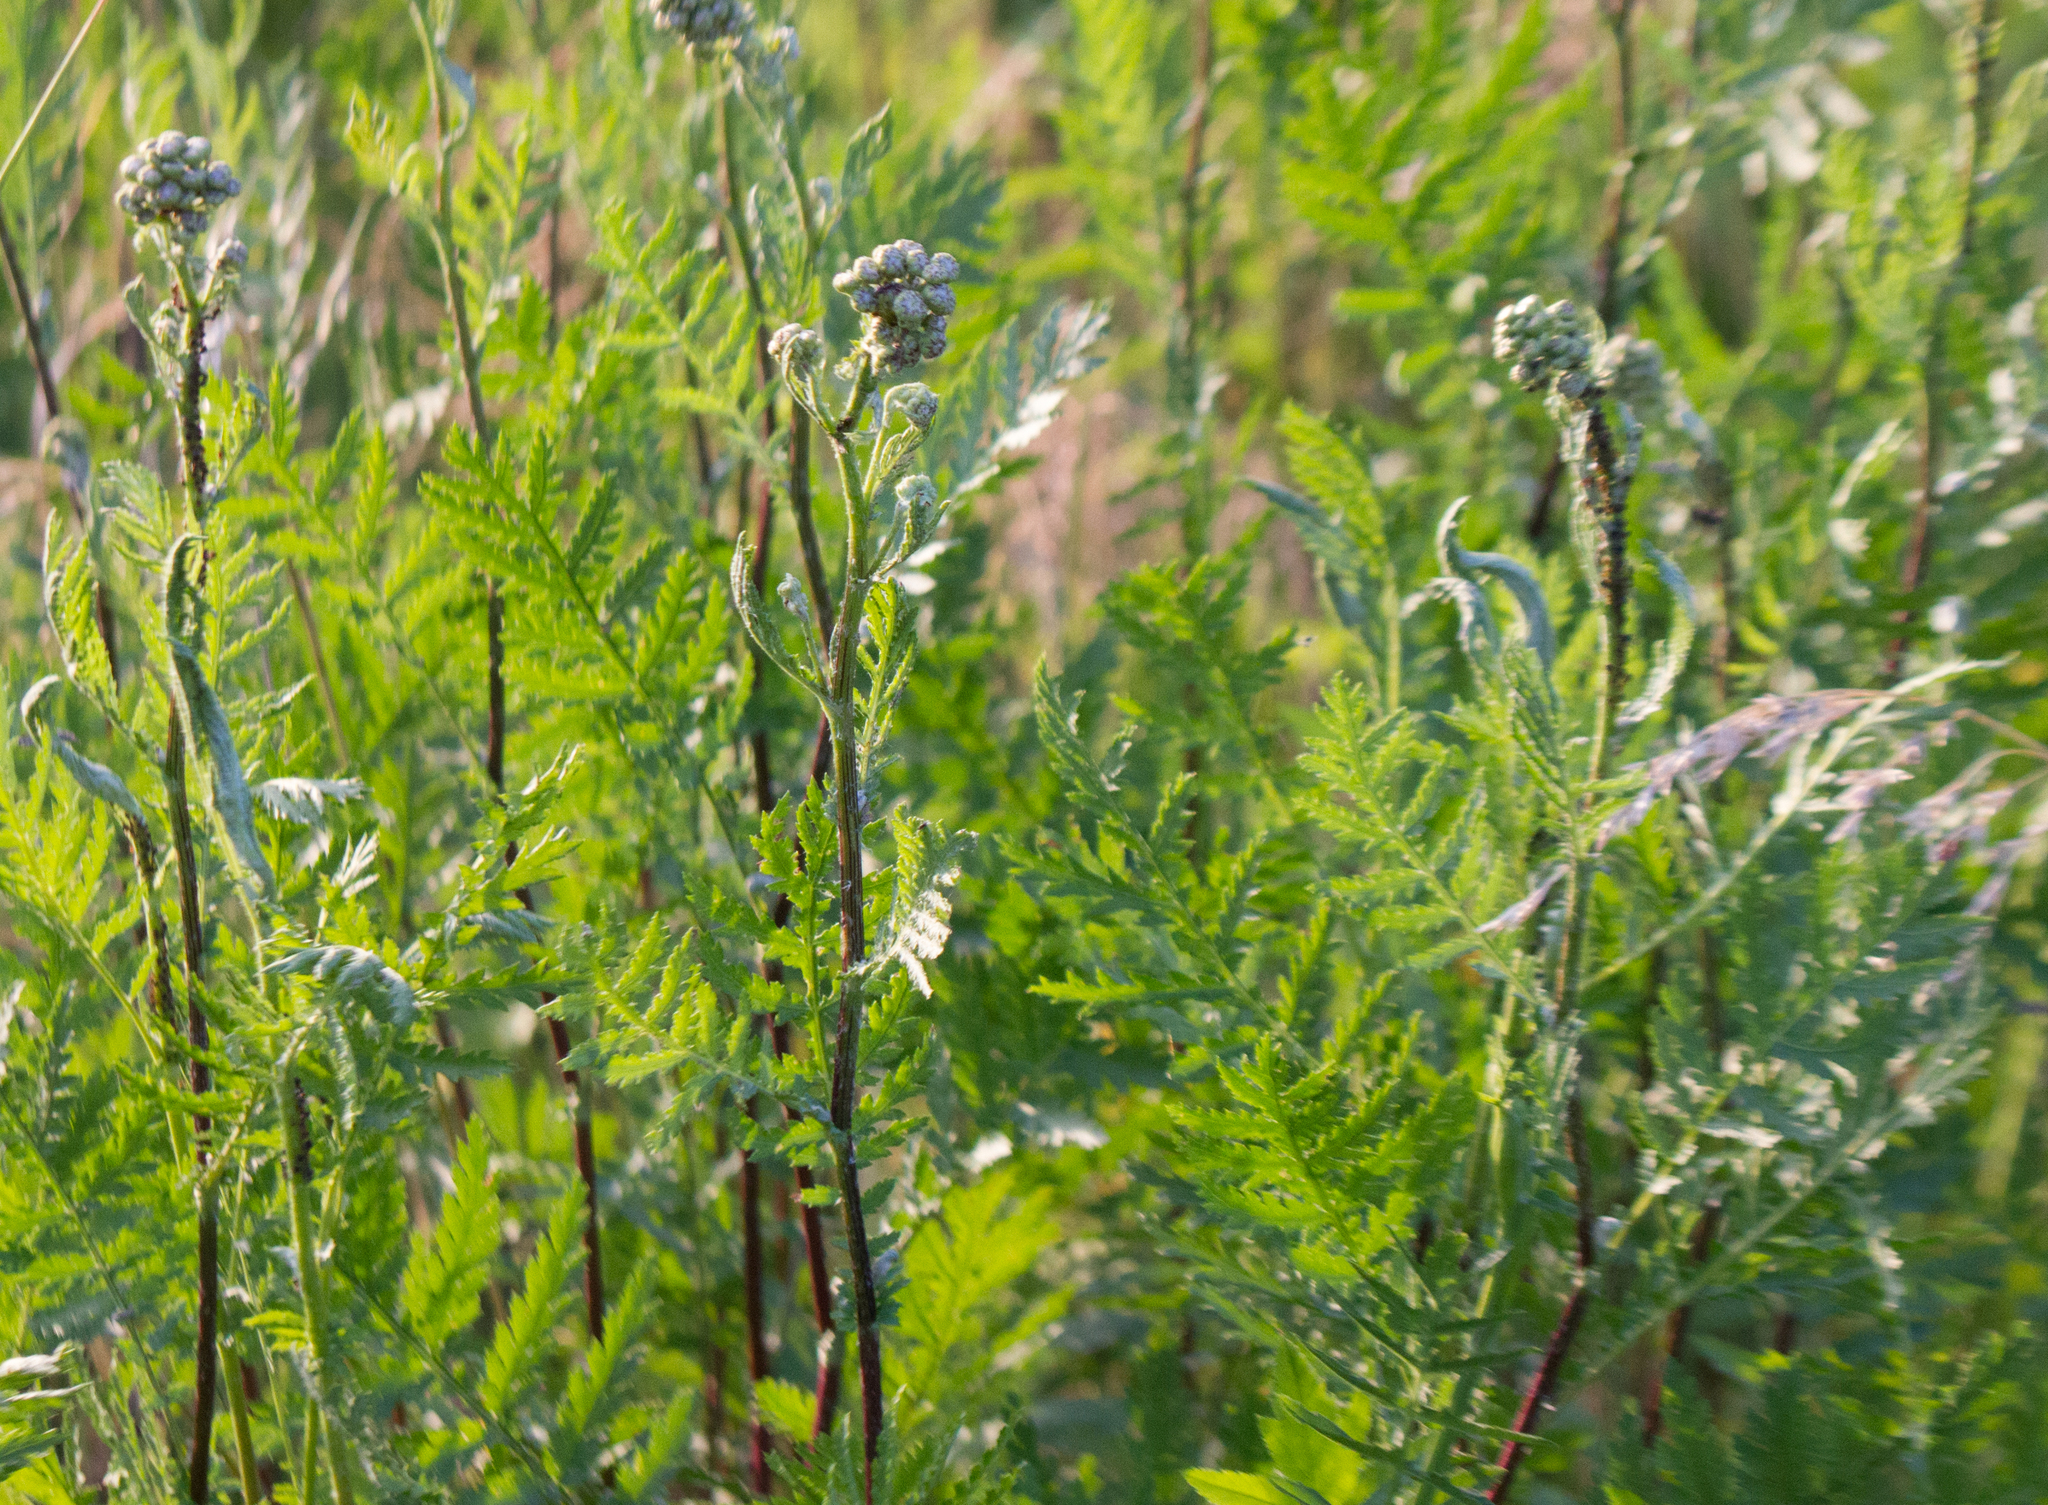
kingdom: Plantae
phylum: Tracheophyta
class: Magnoliopsida
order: Asterales
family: Asteraceae
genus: Tanacetum
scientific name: Tanacetum vulgare
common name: Common tansy
